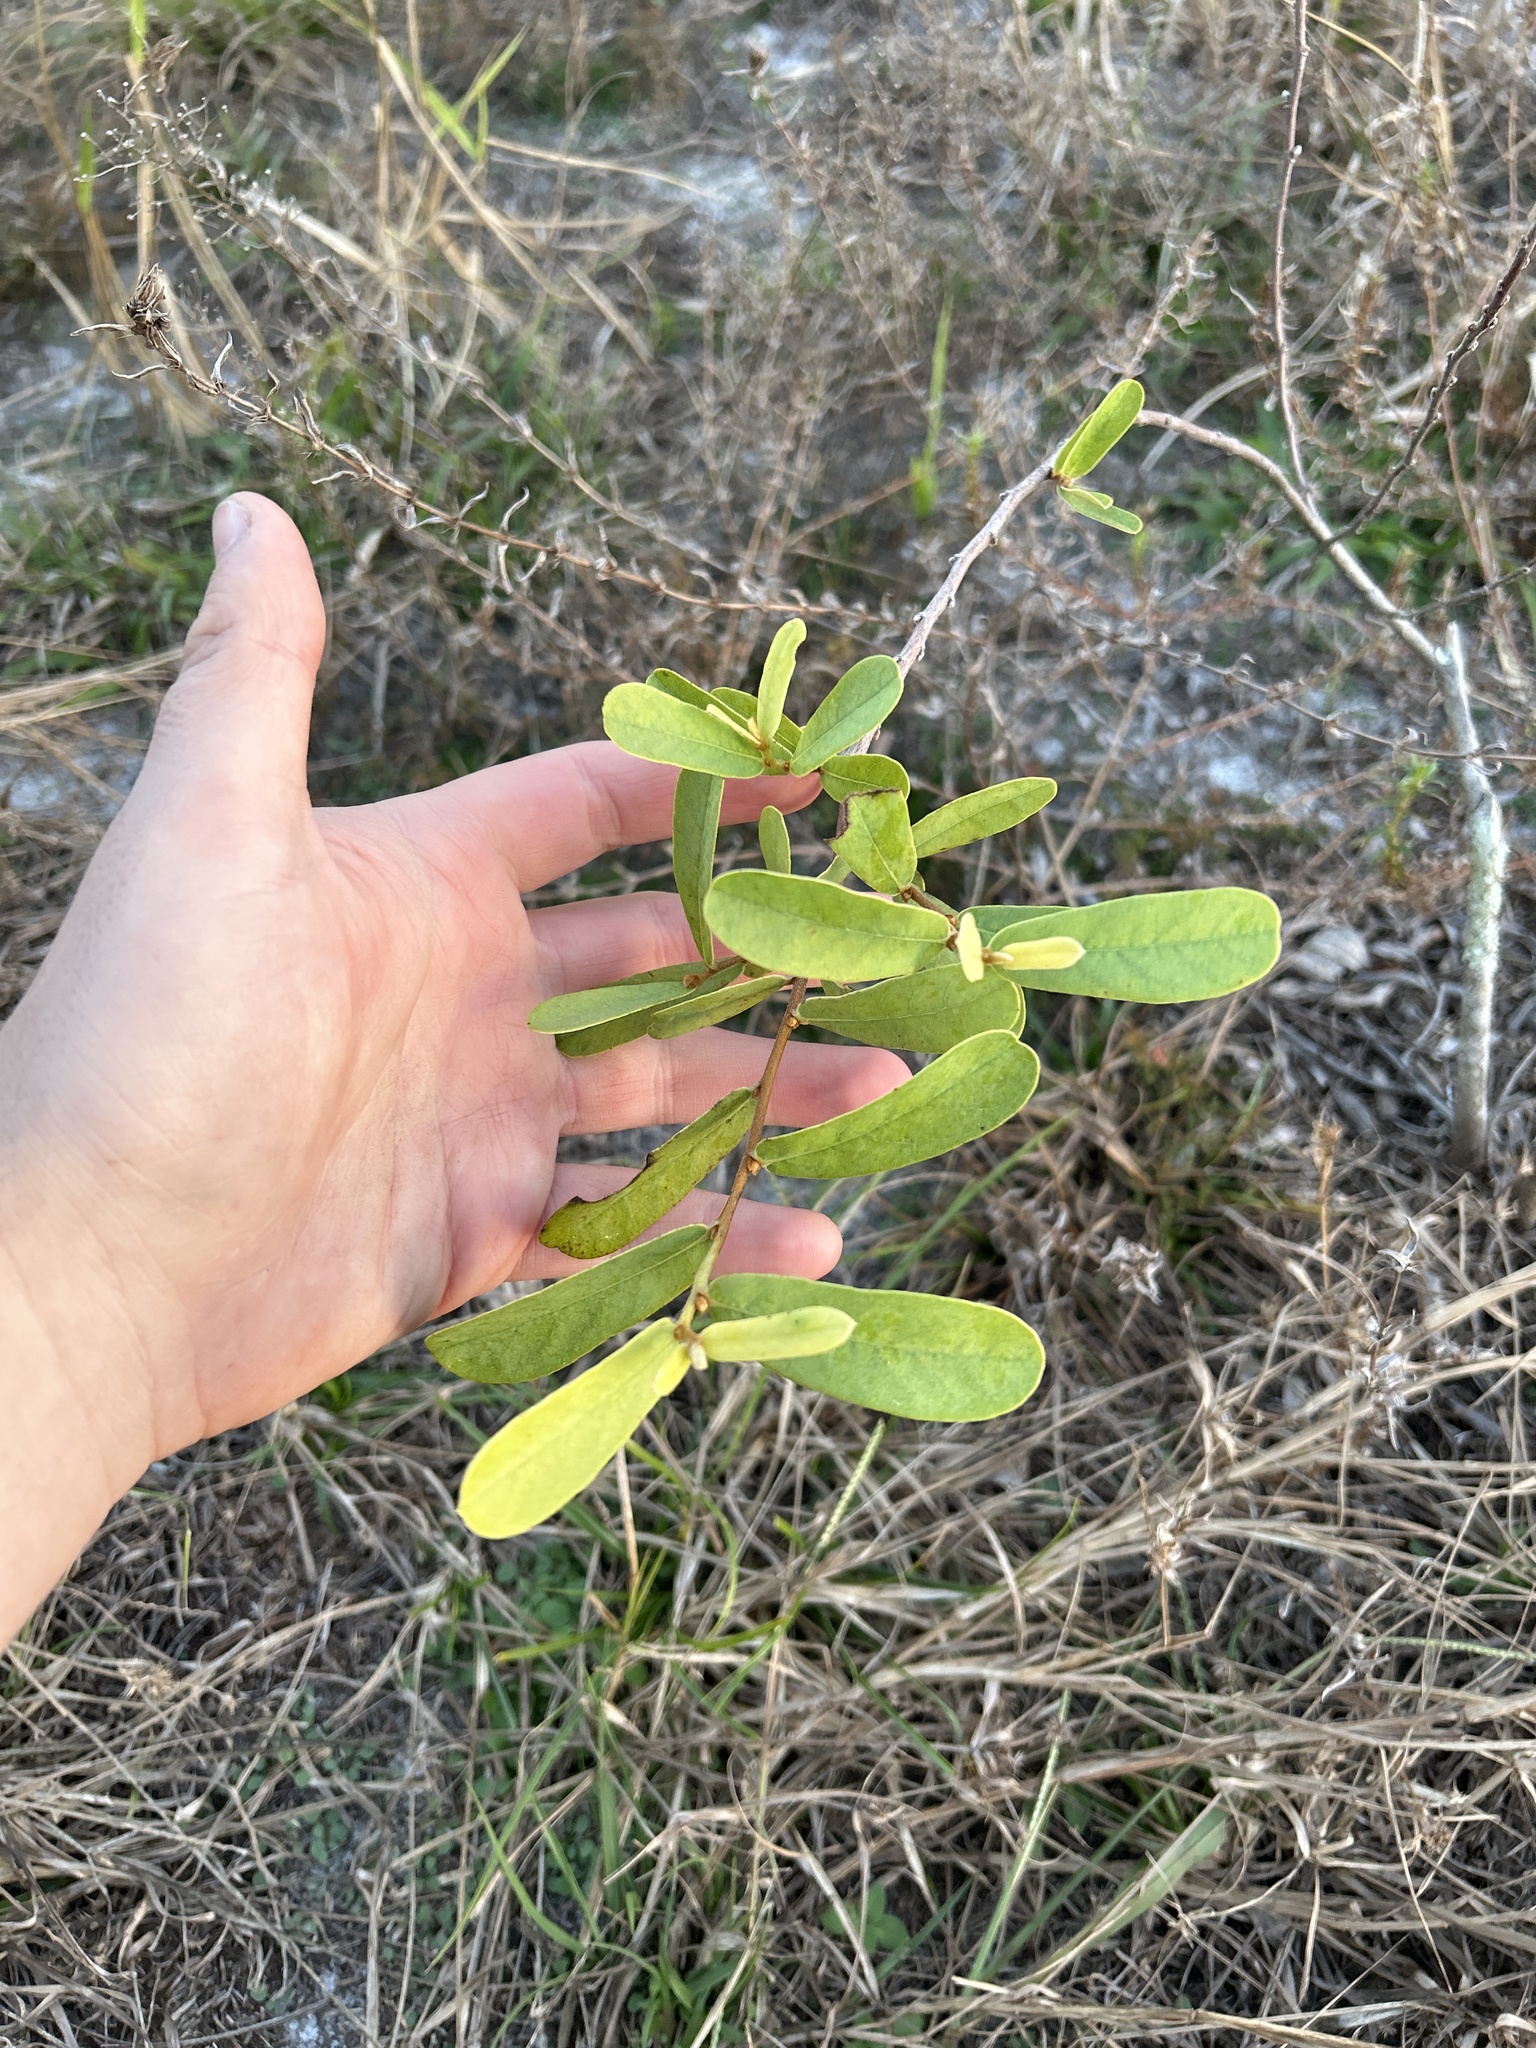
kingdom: Plantae
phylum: Tracheophyta
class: Magnoliopsida
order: Magnoliales
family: Annonaceae
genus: Asimina
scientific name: Asimina reticulata
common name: Flag pawpaw
